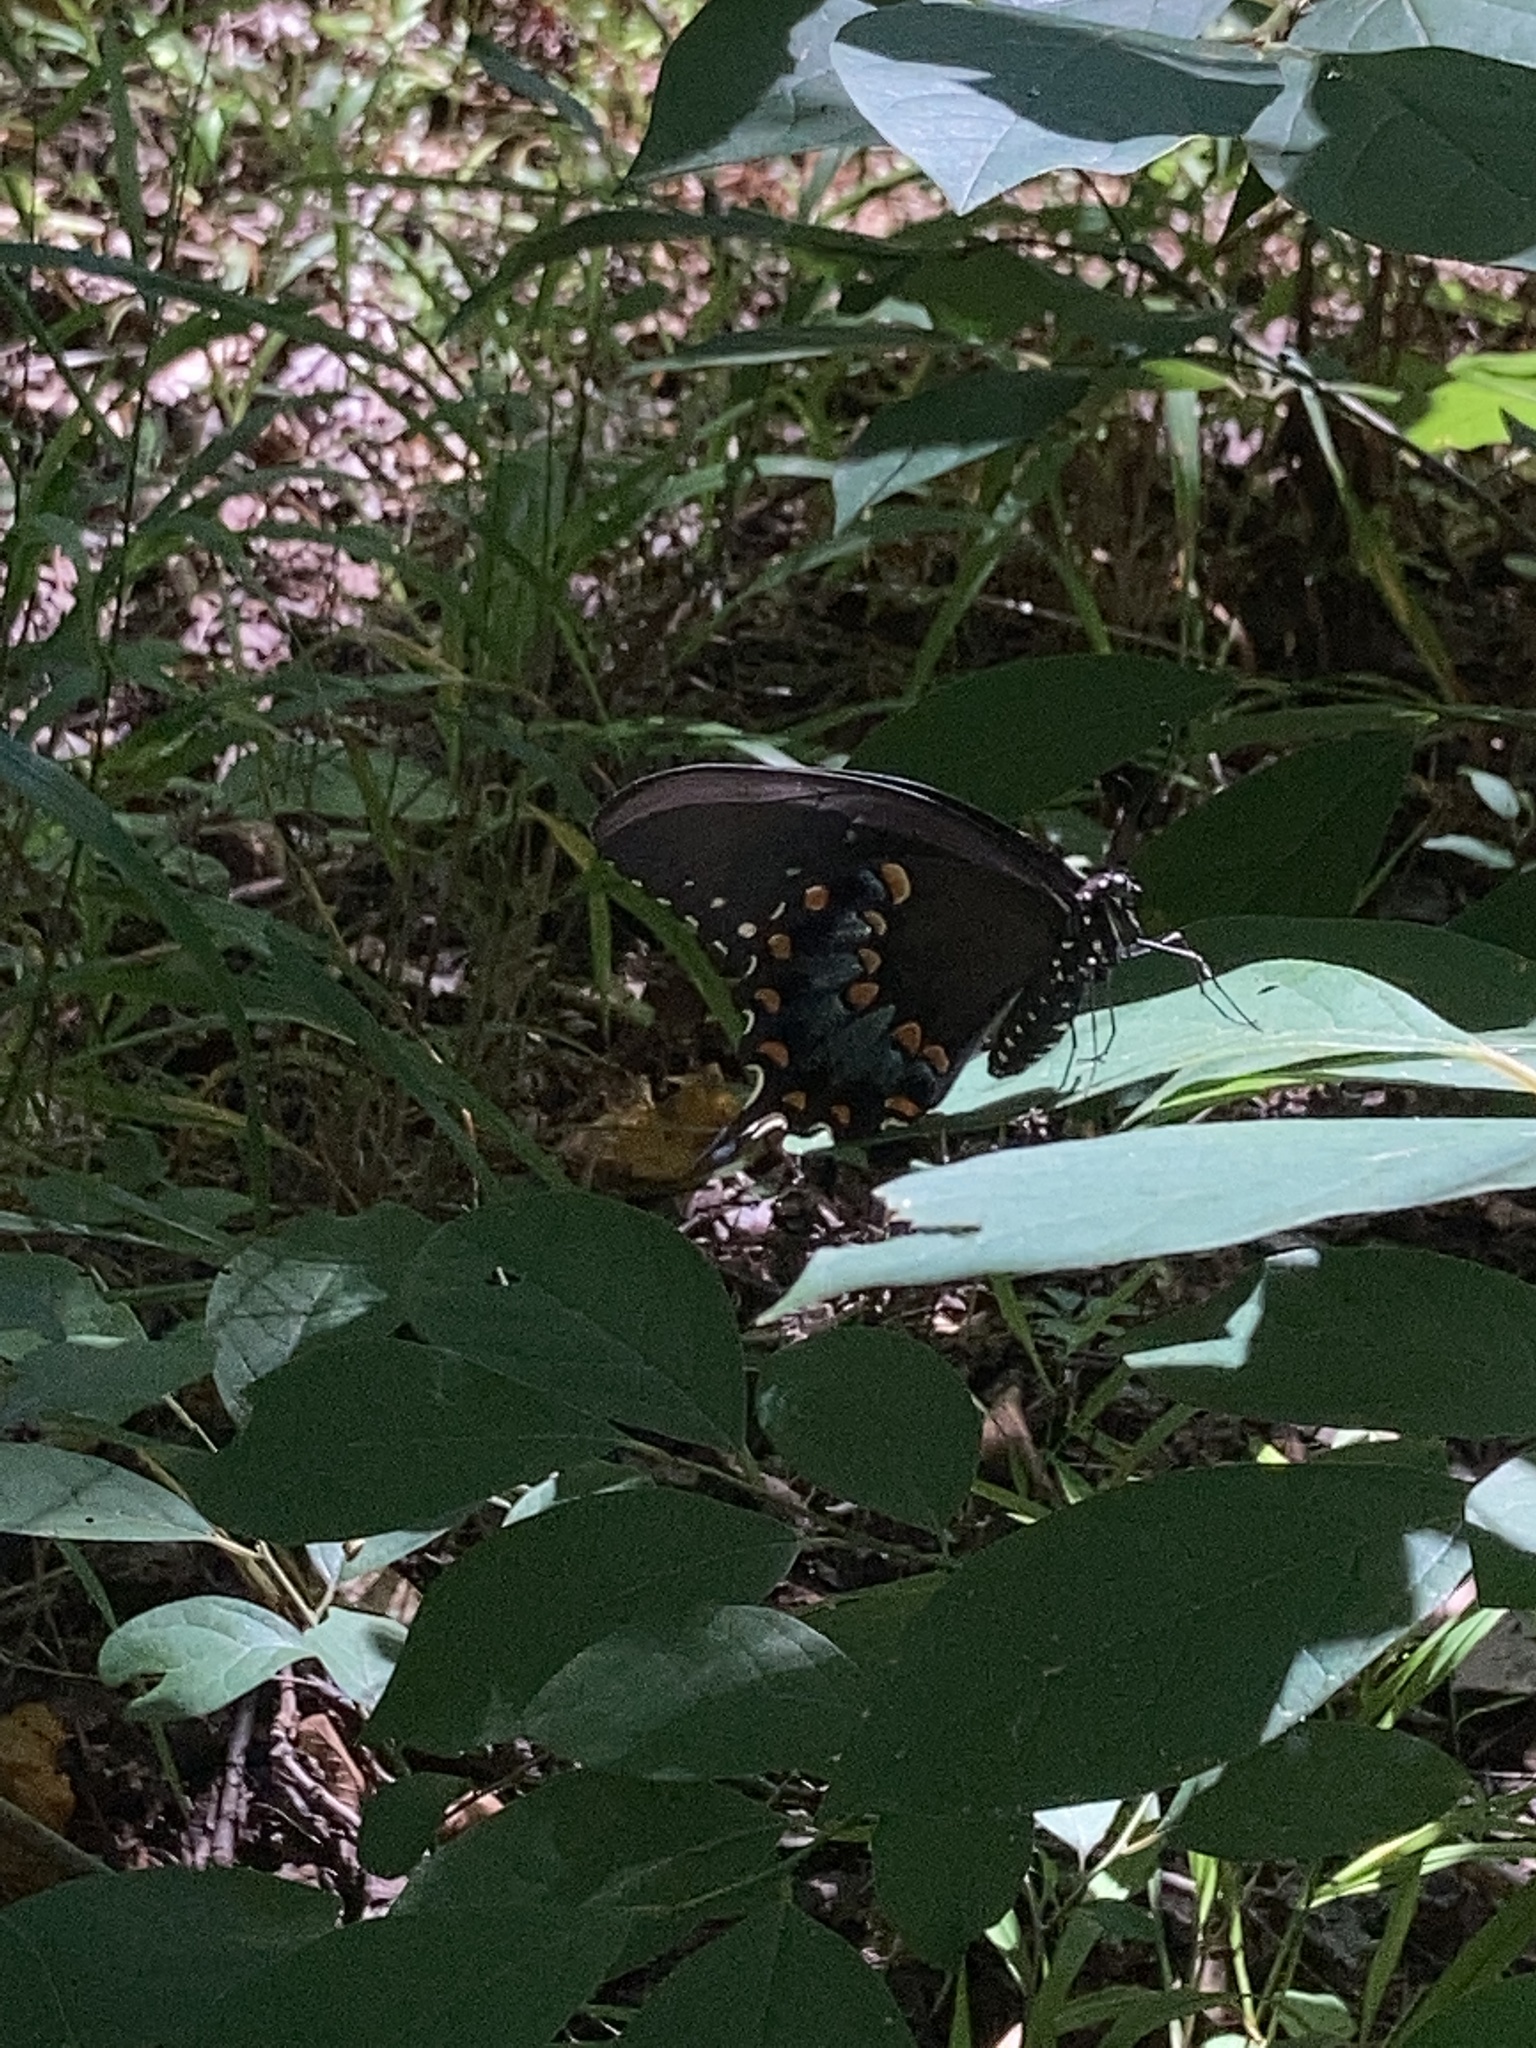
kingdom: Animalia
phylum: Arthropoda
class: Insecta
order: Lepidoptera
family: Papilionidae
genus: Papilio
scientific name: Papilio troilus
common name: Spicebush swallowtail
